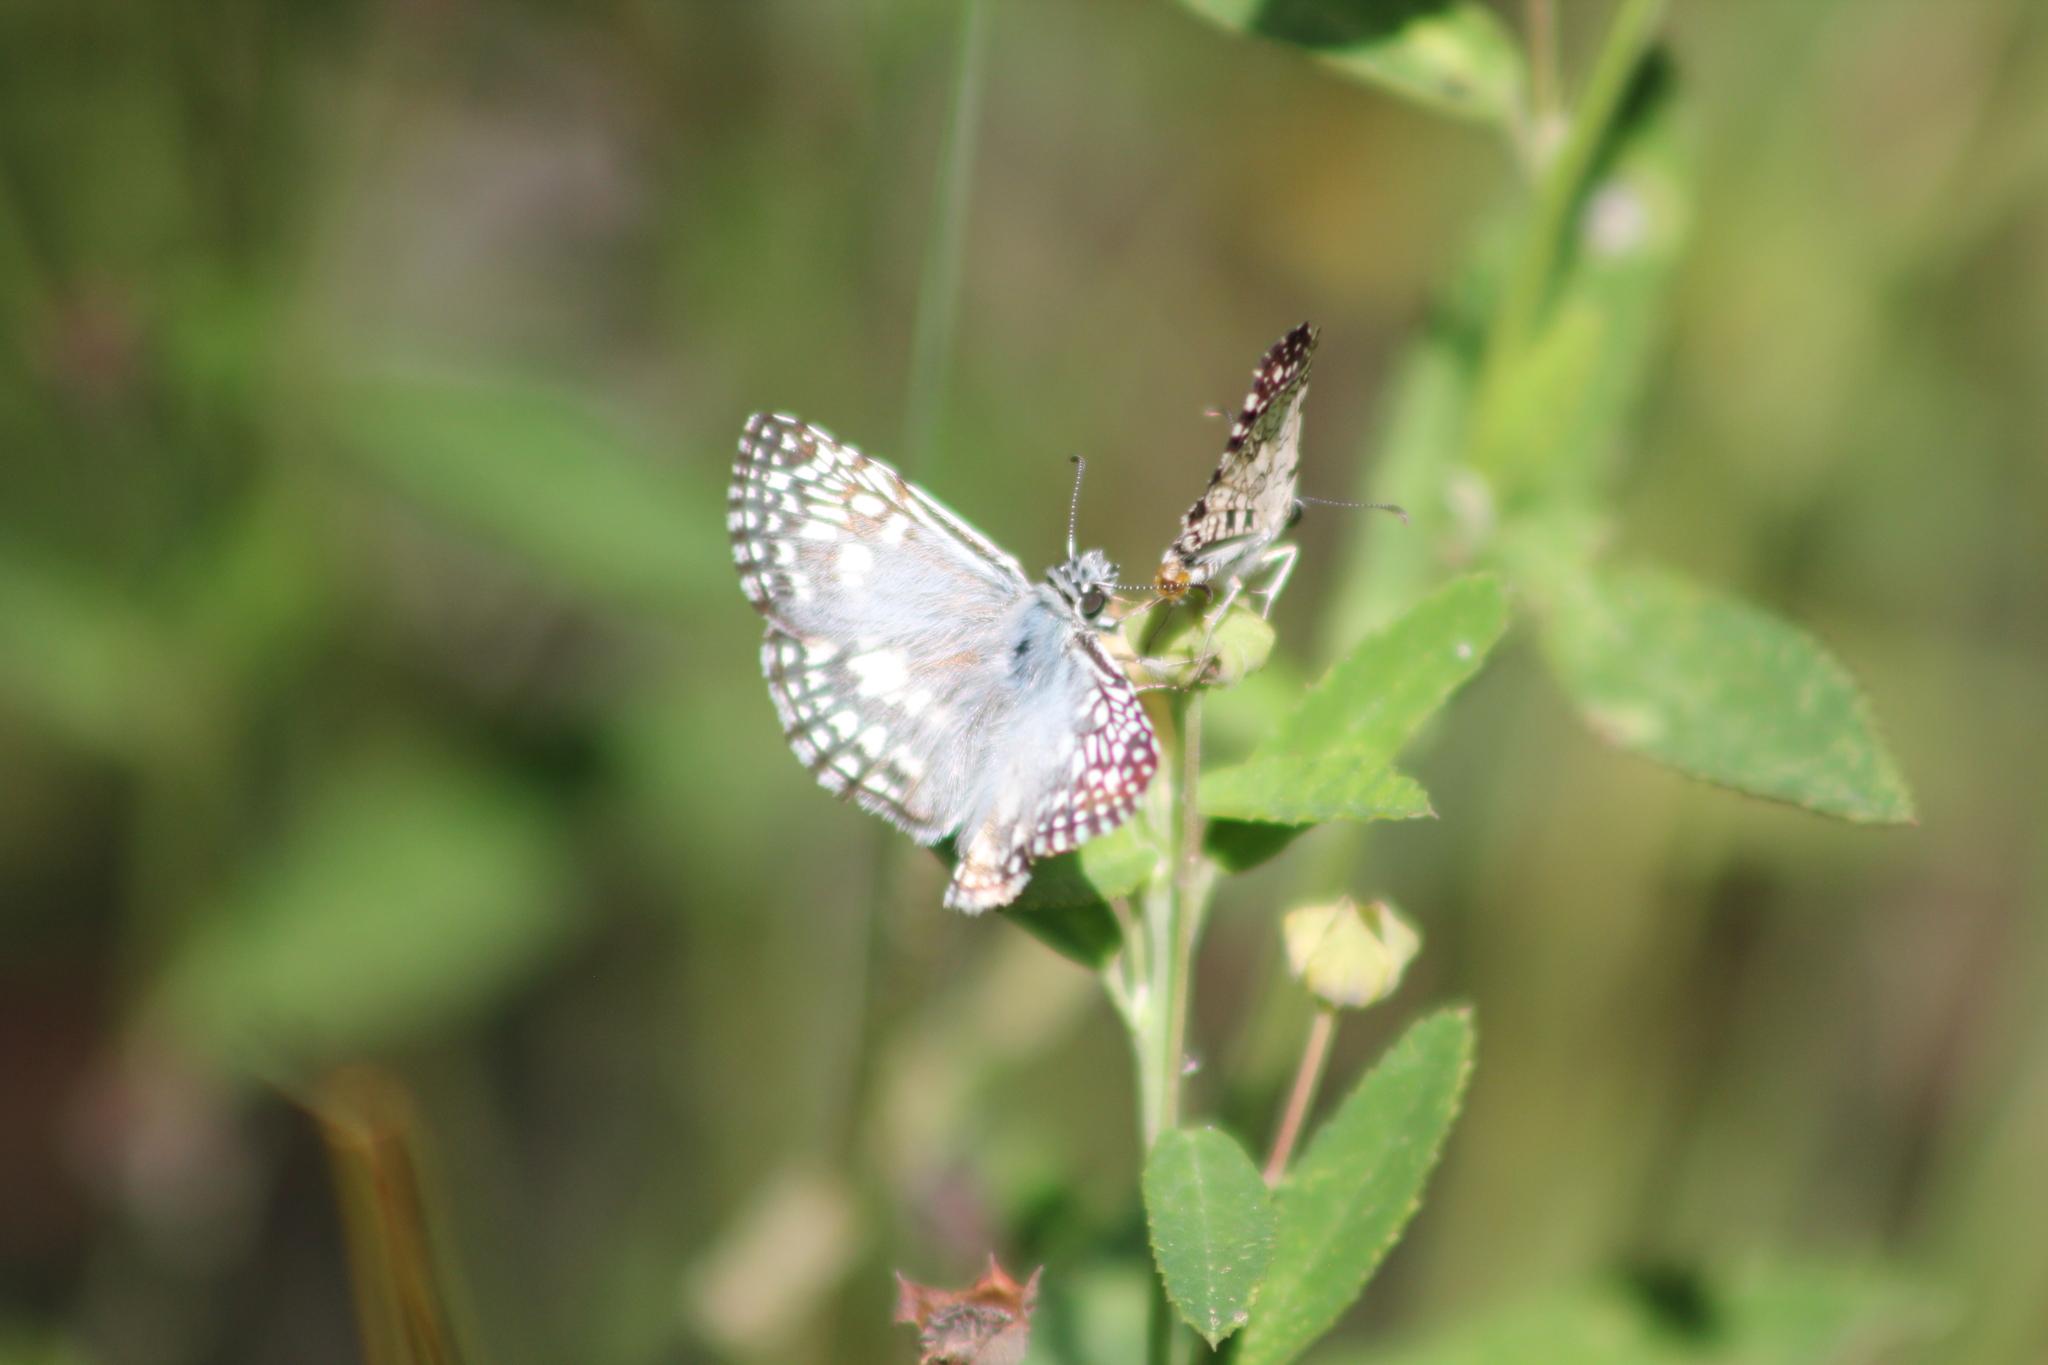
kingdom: Animalia
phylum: Arthropoda
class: Insecta
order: Lepidoptera
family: Hesperiidae
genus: Pyrgus
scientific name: Pyrgus oileus
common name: Tropical checkered-skipper
